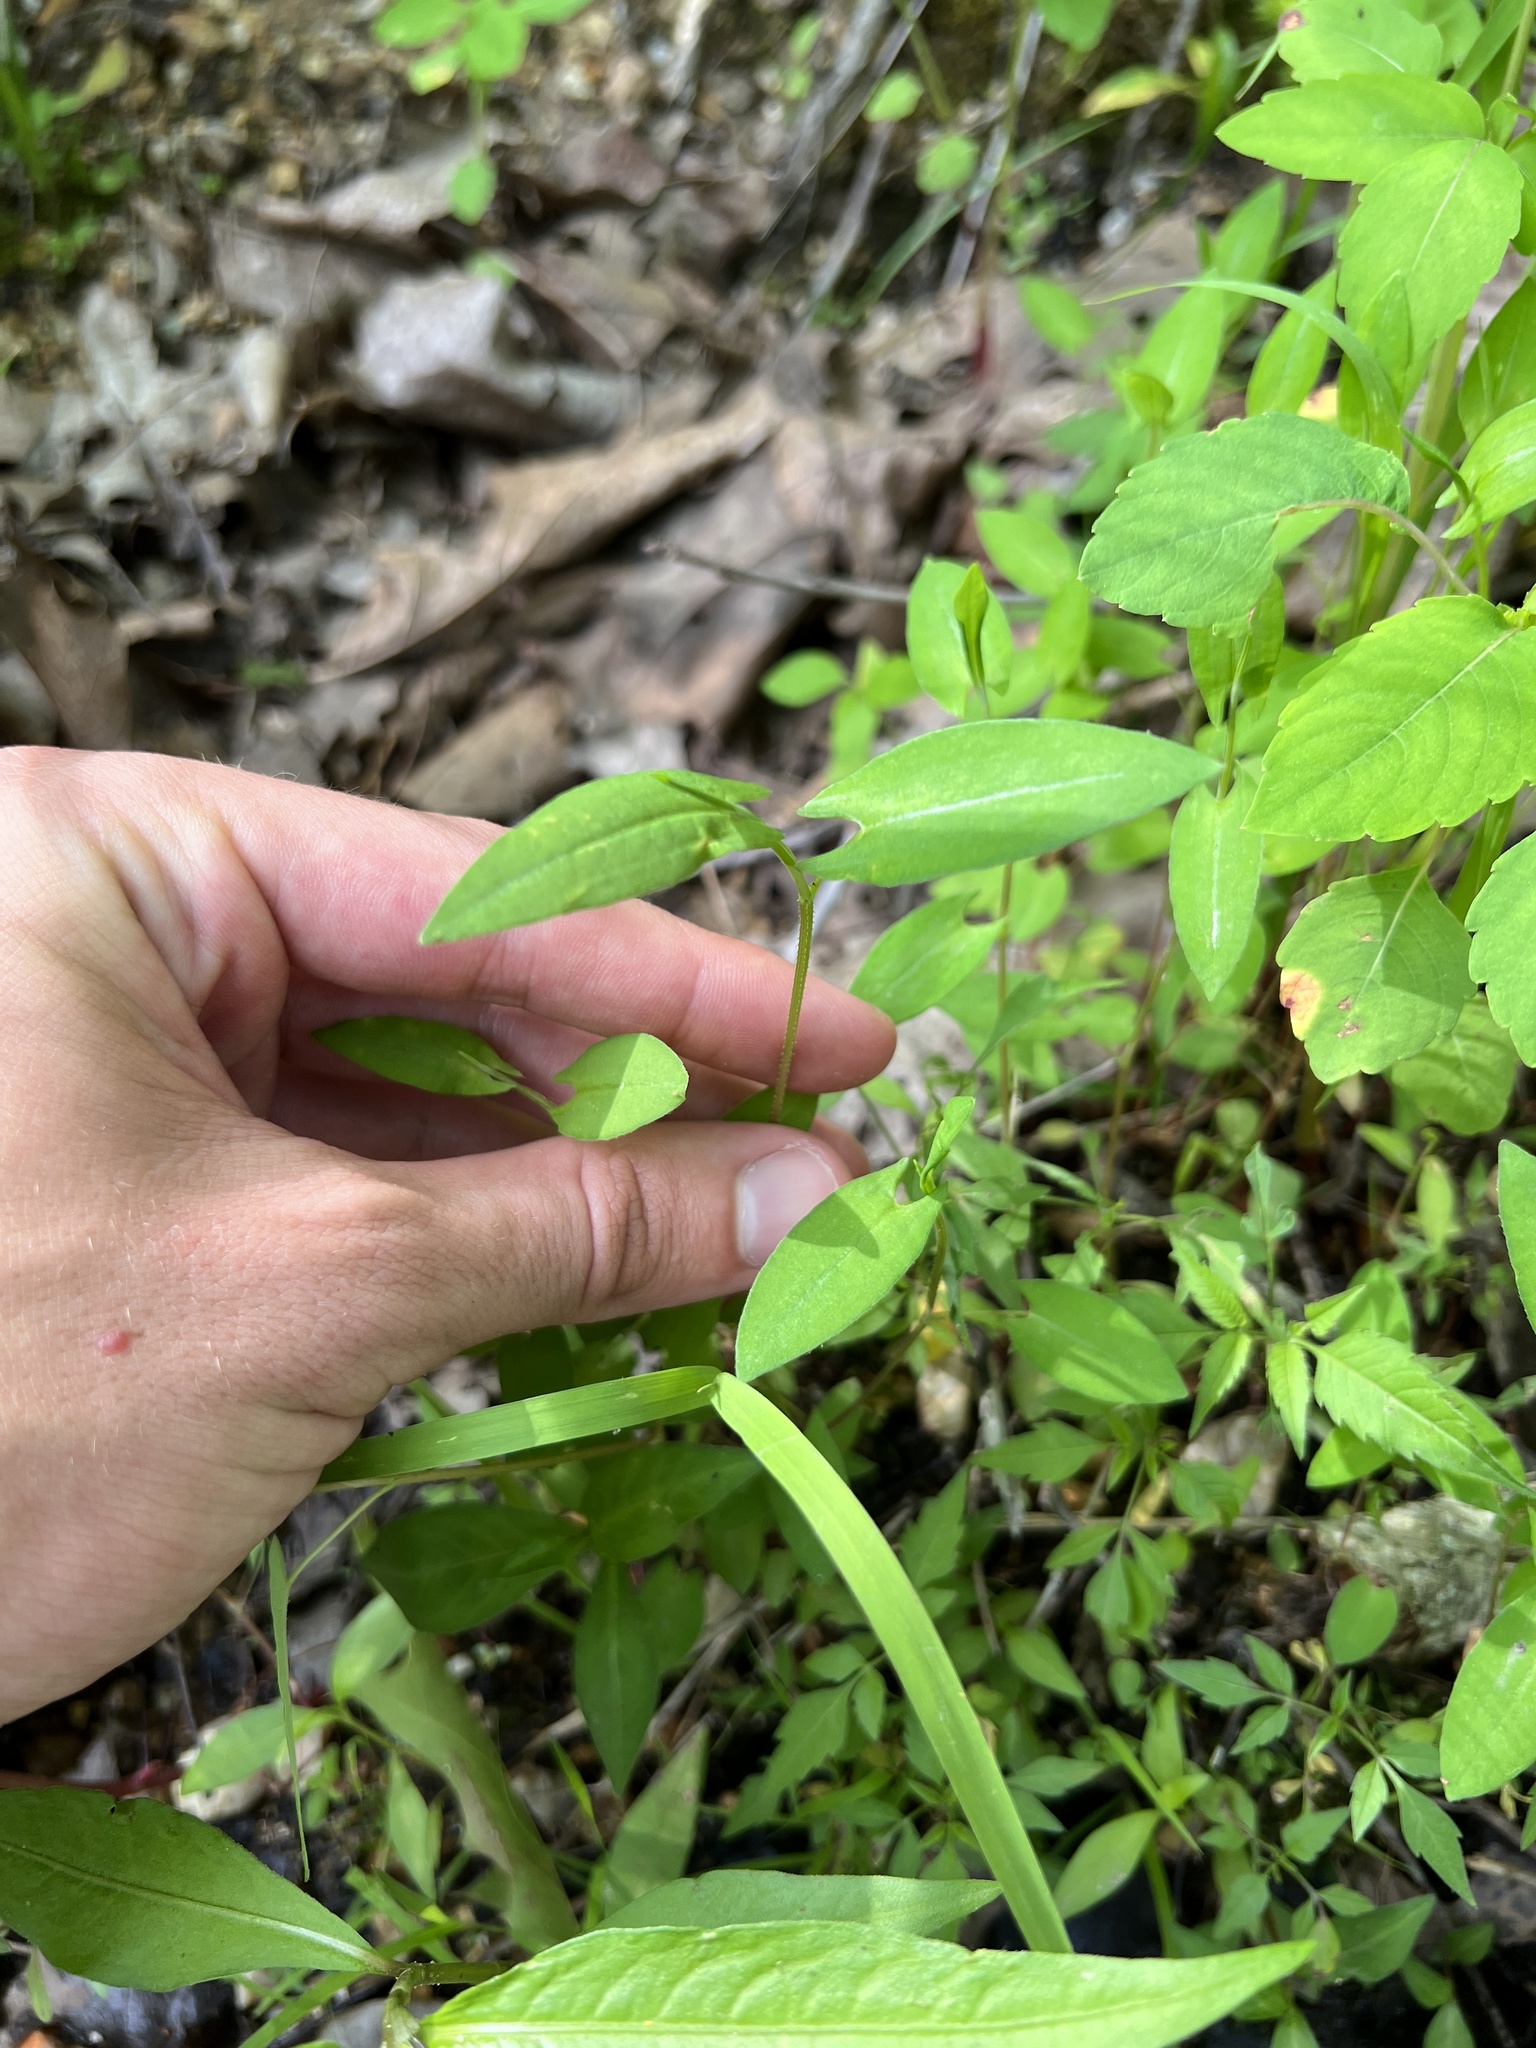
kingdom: Plantae
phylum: Tracheophyta
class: Magnoliopsida
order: Caryophyllales
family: Polygonaceae
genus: Persicaria
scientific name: Persicaria sagittata
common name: American tearthumb
